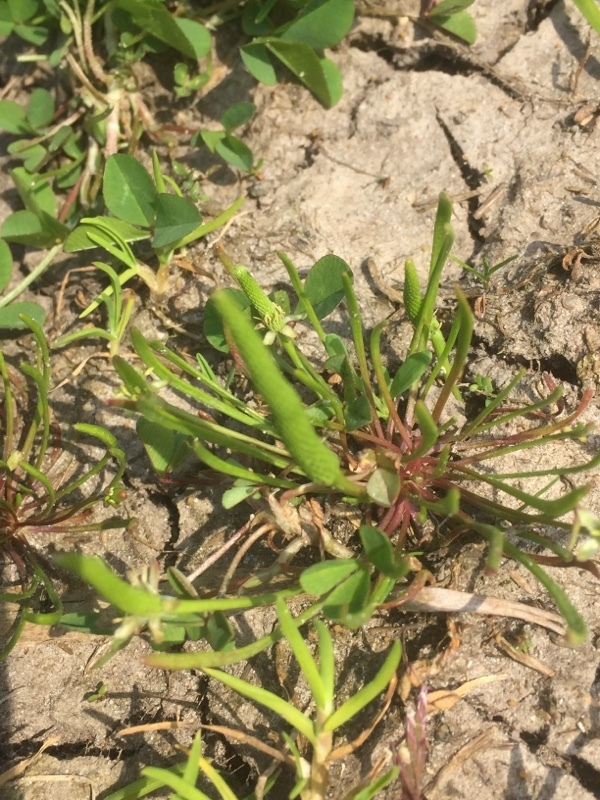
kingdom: Plantae
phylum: Tracheophyta
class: Magnoliopsida
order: Ranunculales
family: Ranunculaceae
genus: Myosurus
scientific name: Myosurus minimus
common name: Mousetail
